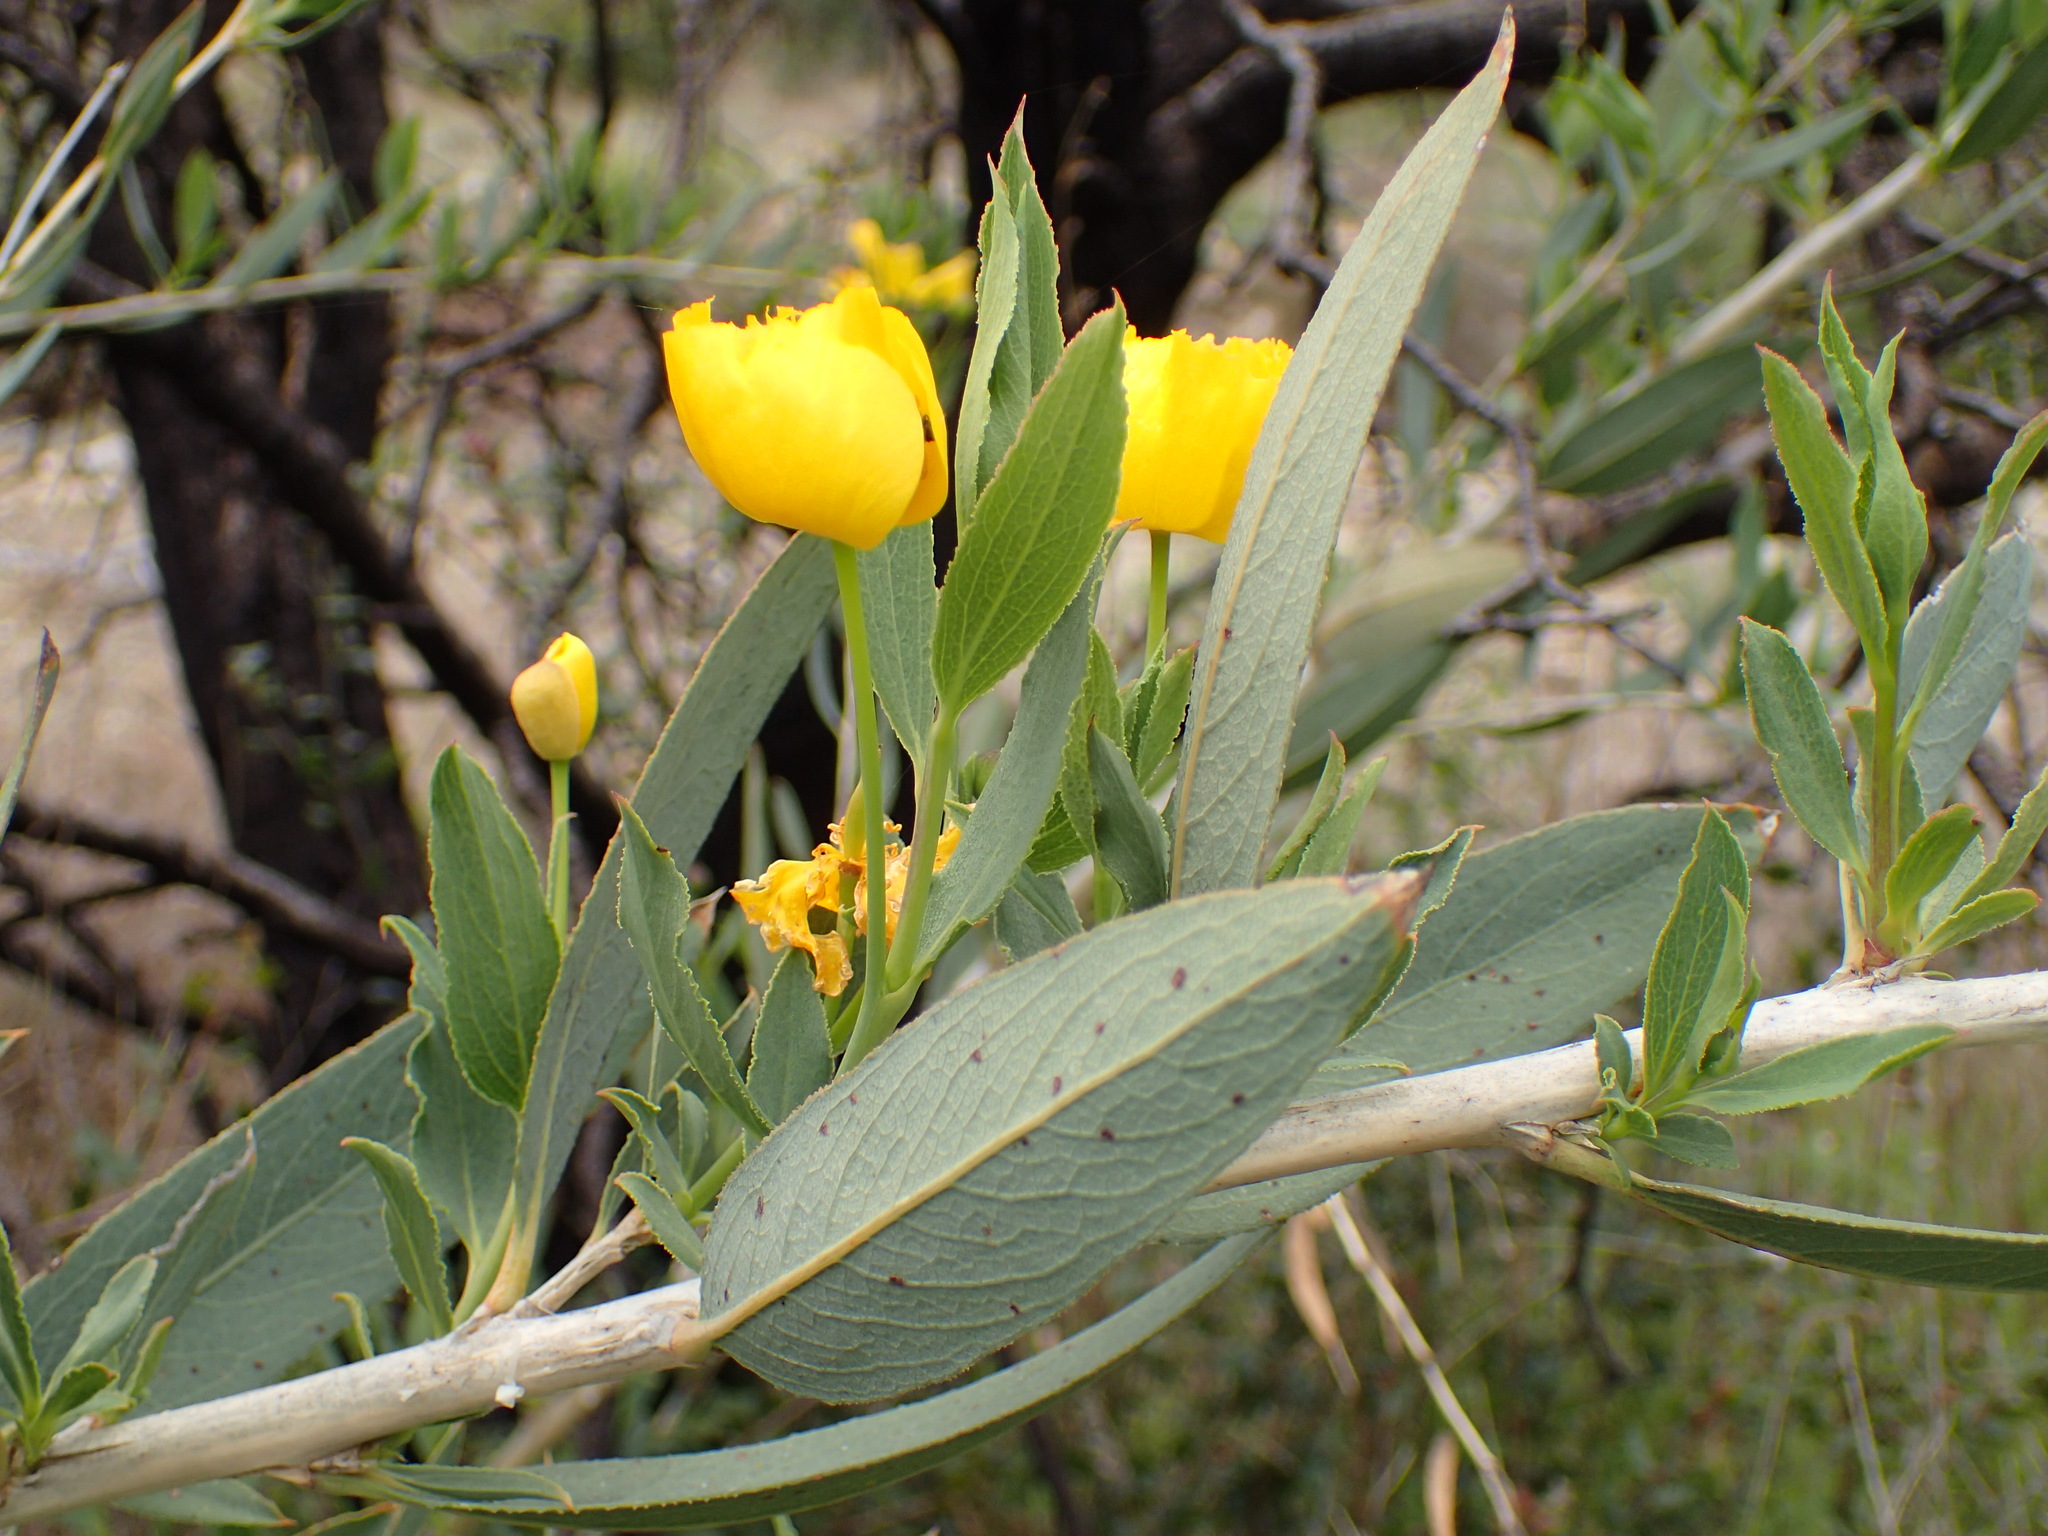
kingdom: Plantae
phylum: Tracheophyta
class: Magnoliopsida
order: Ranunculales
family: Papaveraceae
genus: Dendromecon
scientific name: Dendromecon rigida
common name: Tree poppy
